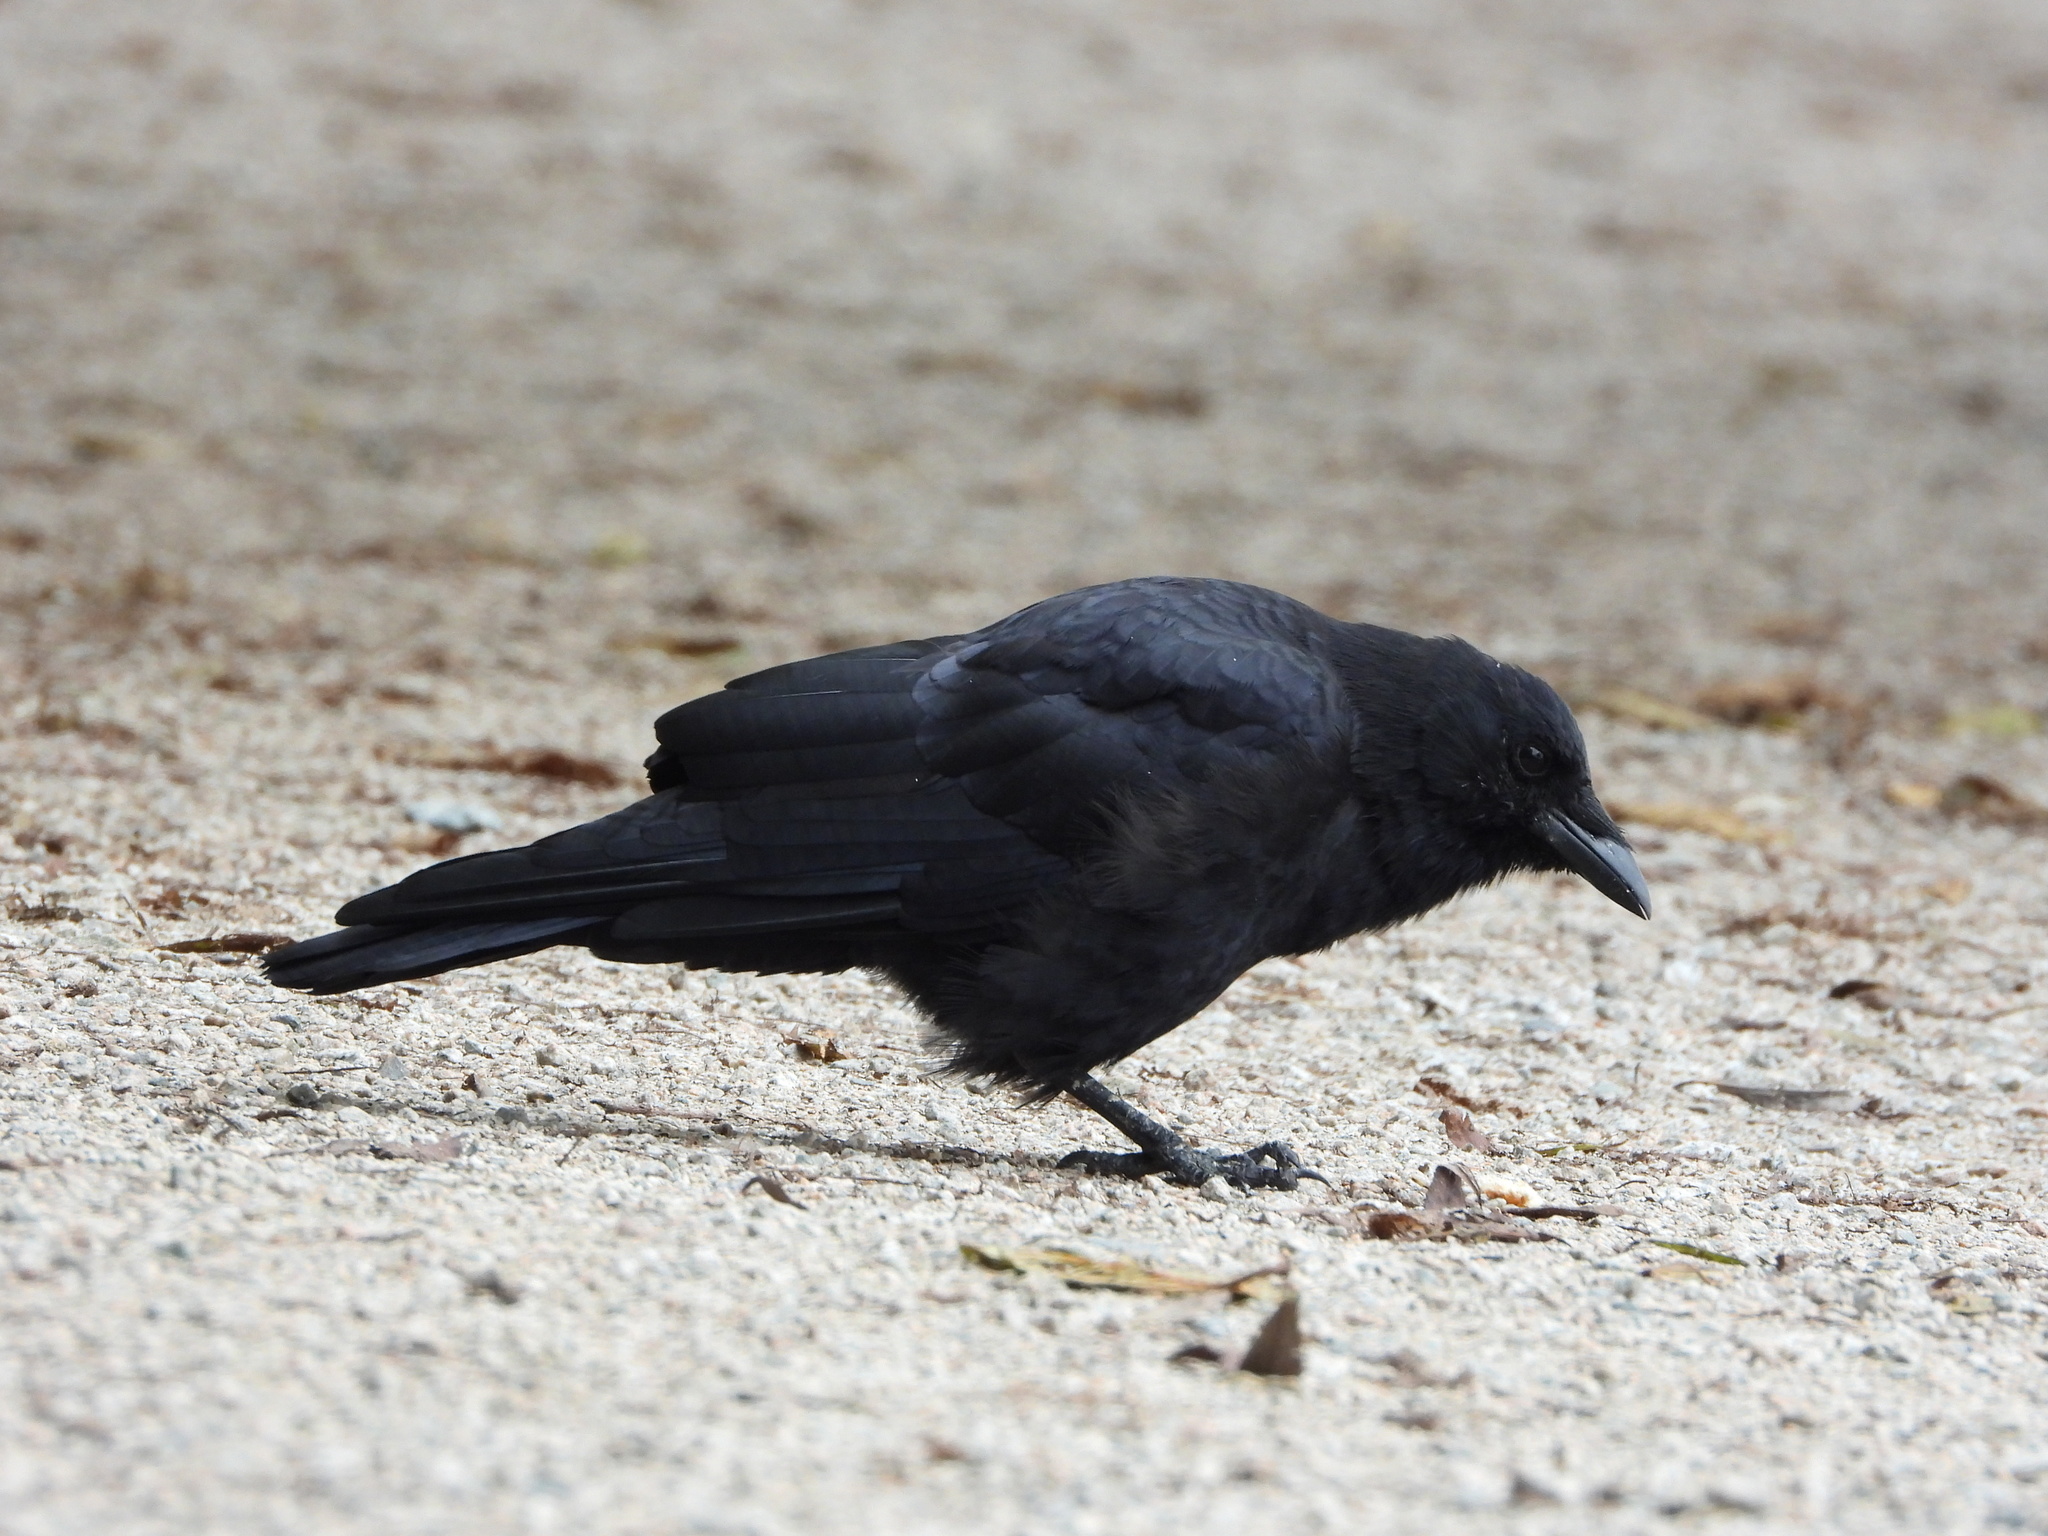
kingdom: Animalia
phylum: Chordata
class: Aves
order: Passeriformes
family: Corvidae
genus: Corvus
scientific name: Corvus brachyrhynchos
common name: American crow
